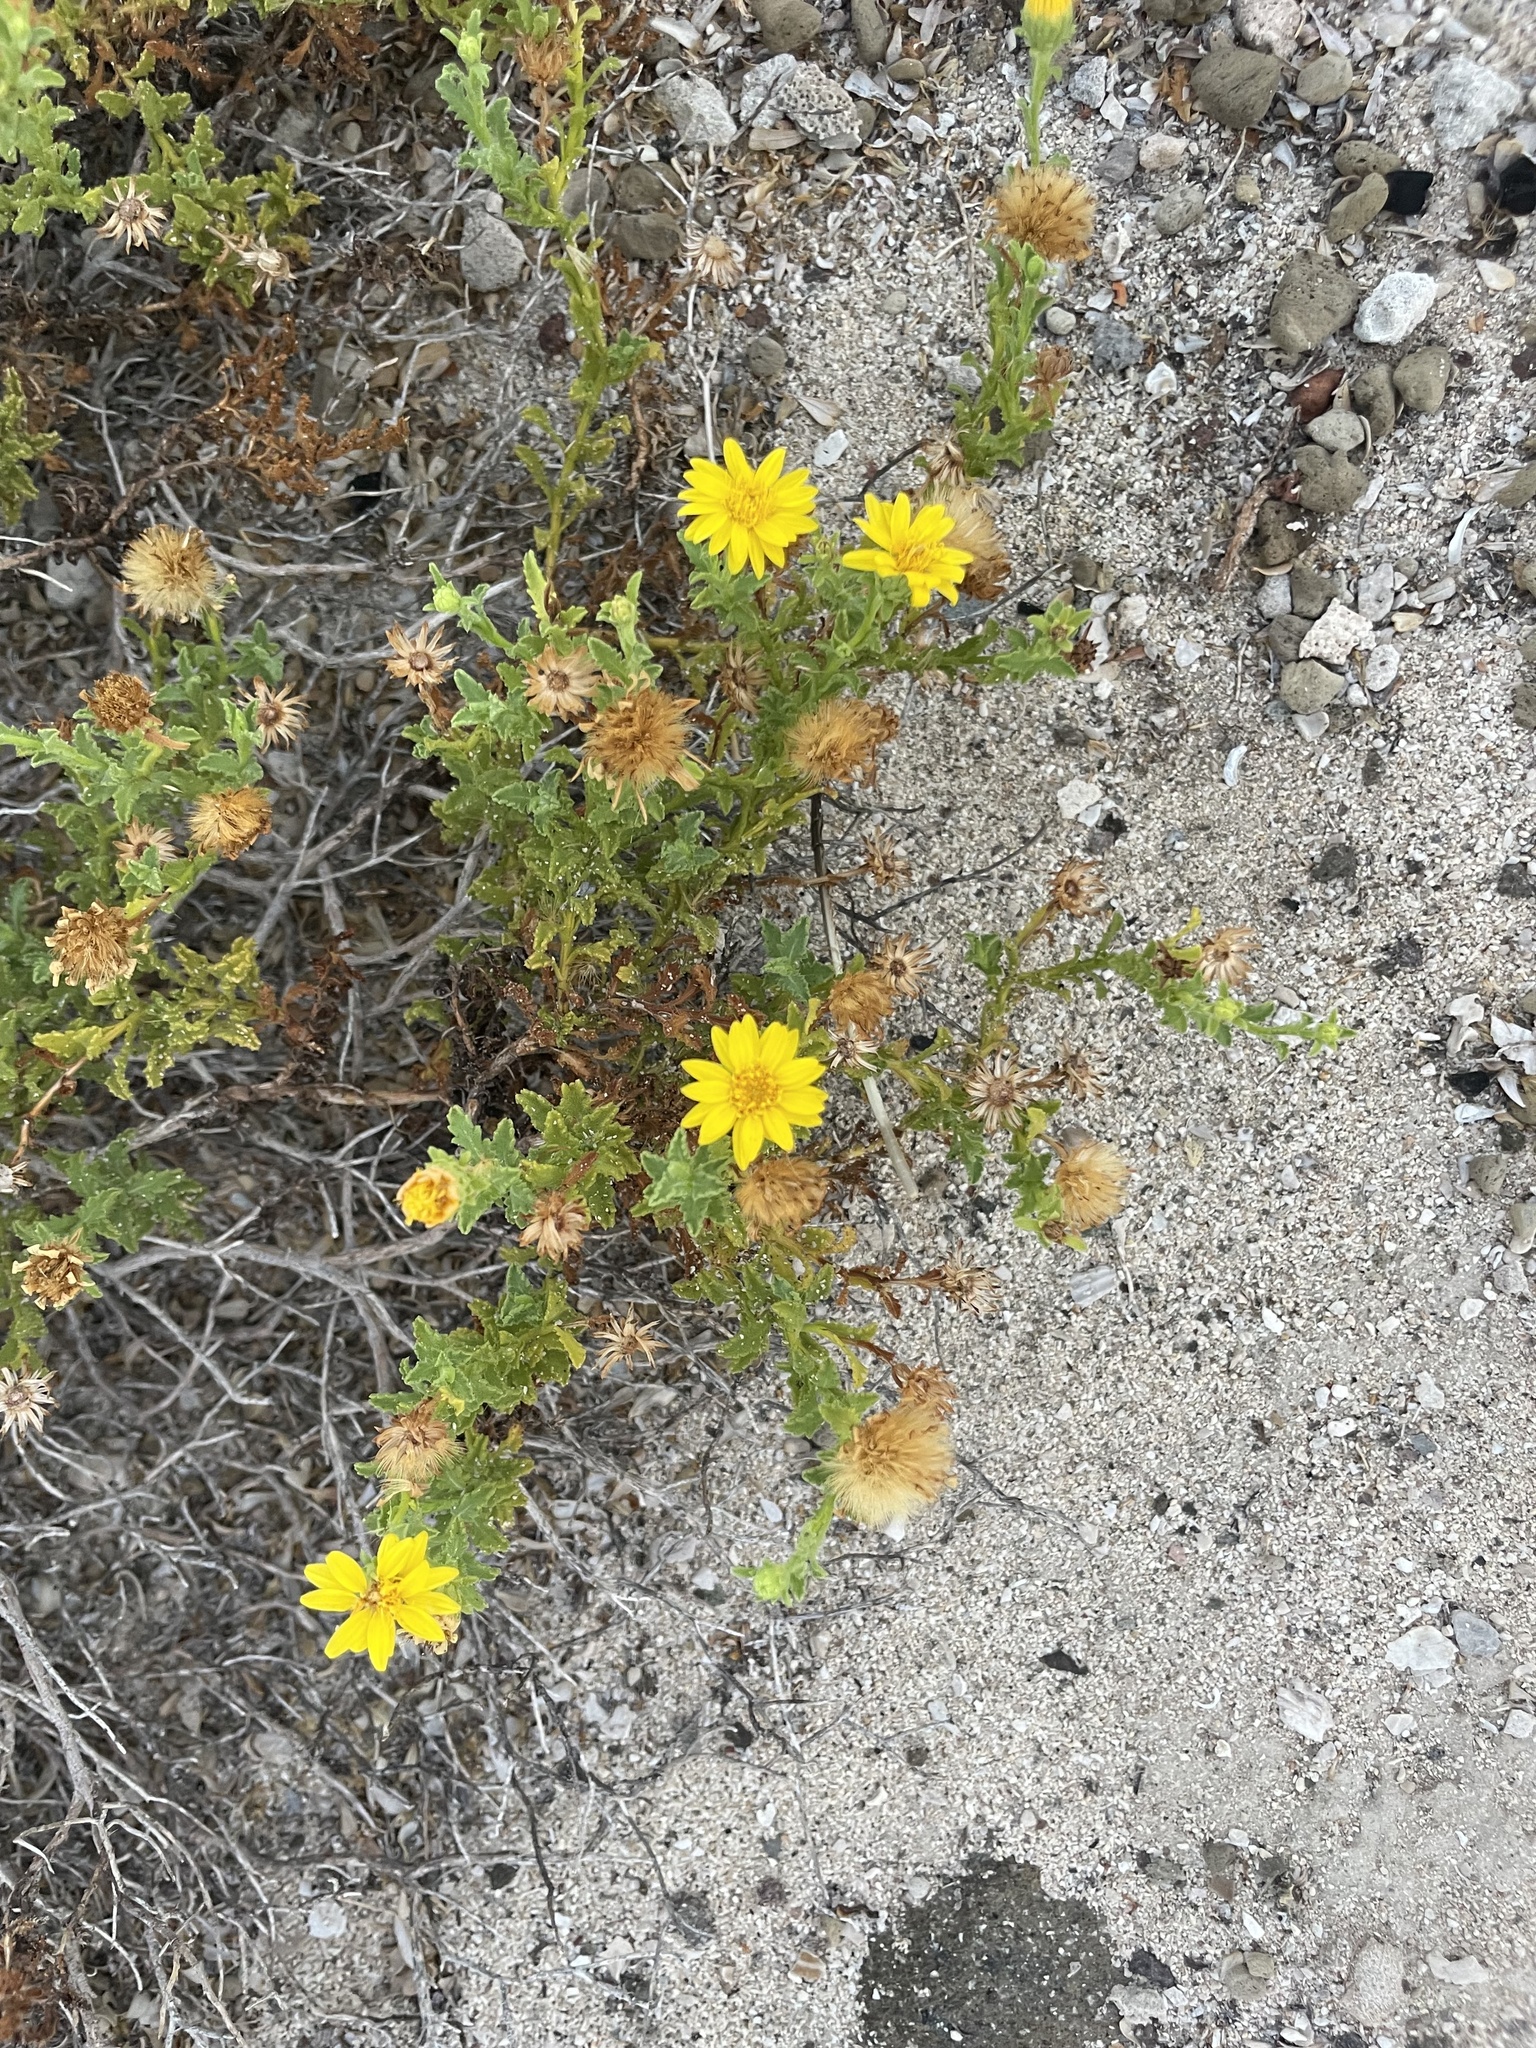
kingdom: Plantae
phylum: Tracheophyta
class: Magnoliopsida
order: Asterales
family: Asteraceae
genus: Xanthisma
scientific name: Xanthisma spinulosum
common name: Spiny goldenweed
